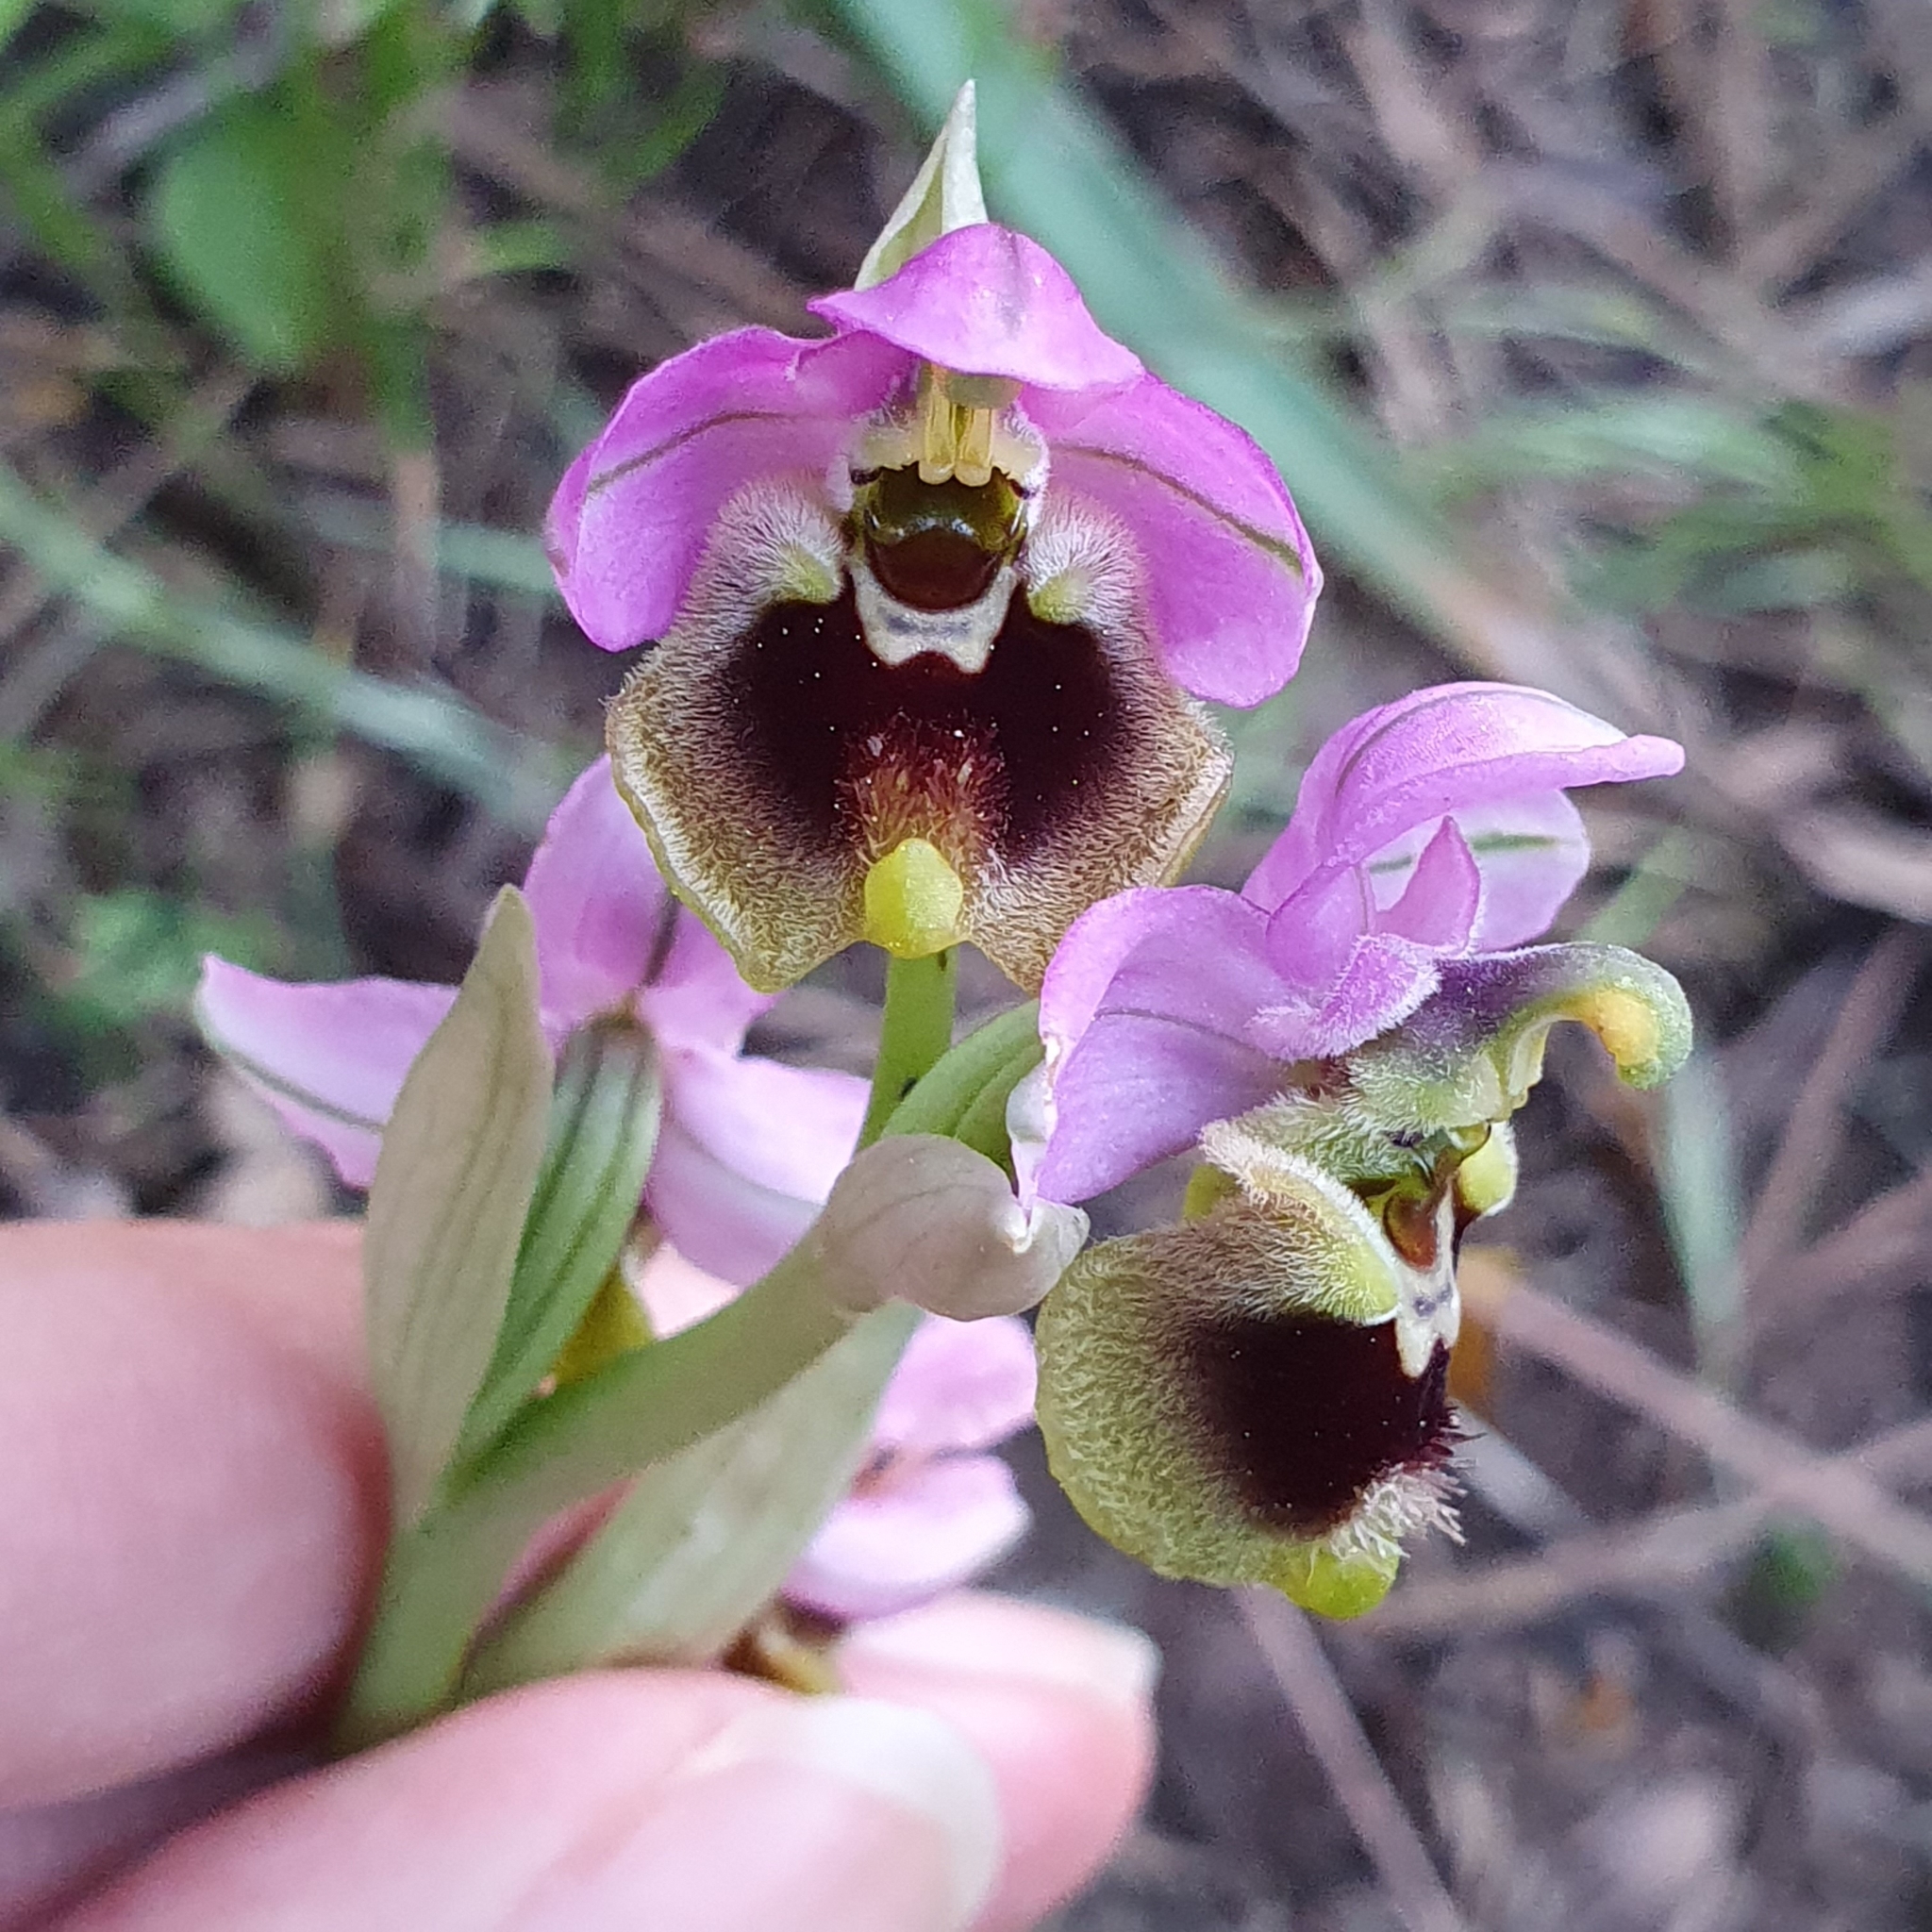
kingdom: Plantae
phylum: Tracheophyta
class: Liliopsida
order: Asparagales
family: Orchidaceae
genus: Ophrys
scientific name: Ophrys tenthredinifera
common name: Sawfly orchid
